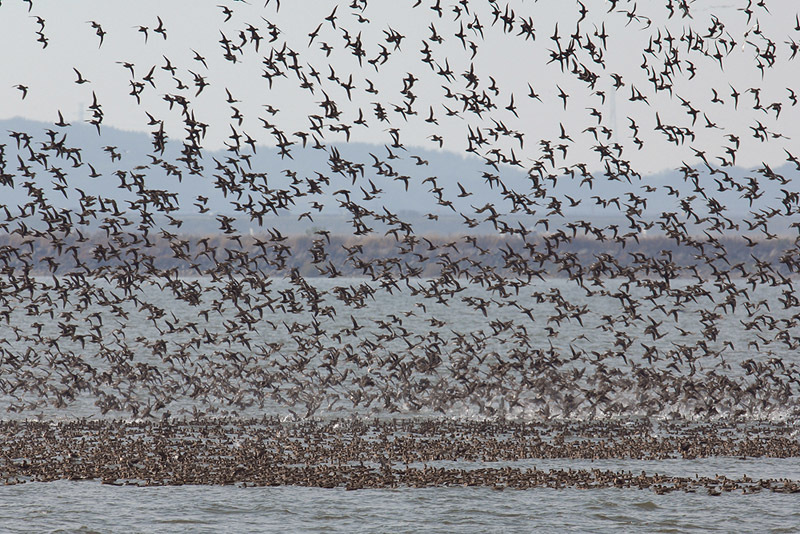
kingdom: Animalia
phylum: Chordata
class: Aves
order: Anseriformes
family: Anatidae
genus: Sibirionetta
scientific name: Sibirionetta formosa
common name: Baikal teal
